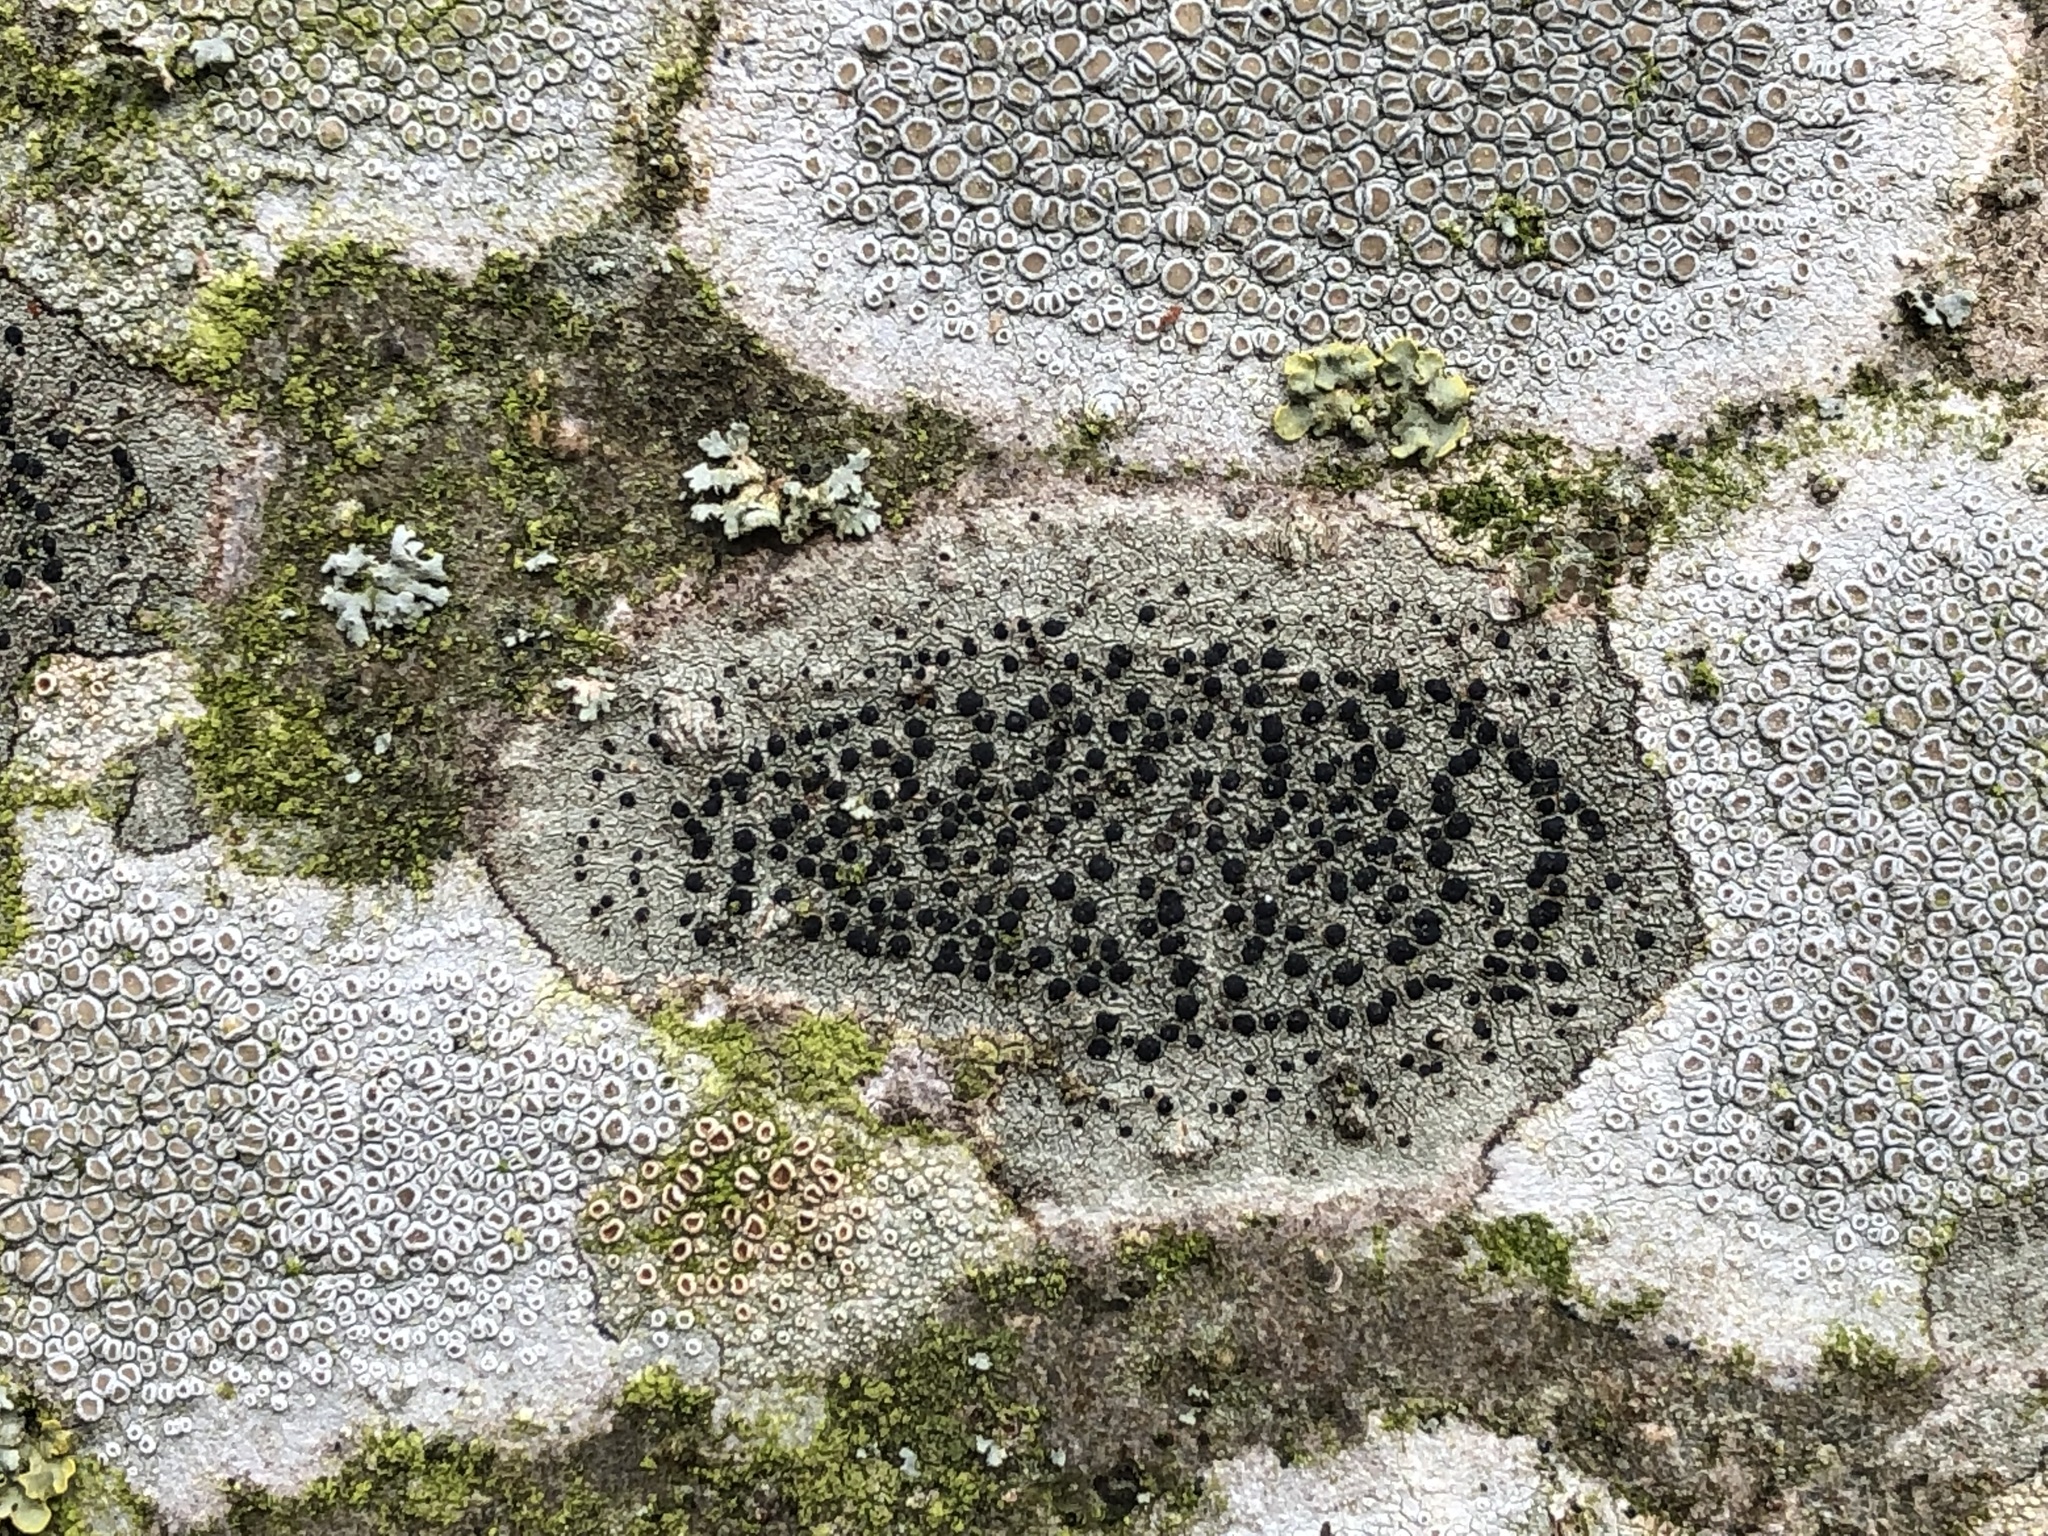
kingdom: Fungi
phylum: Ascomycota
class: Lecanoromycetes
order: Lecanorales
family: Lecanoraceae
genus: Lecidella
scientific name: Lecidella elaeochroma
